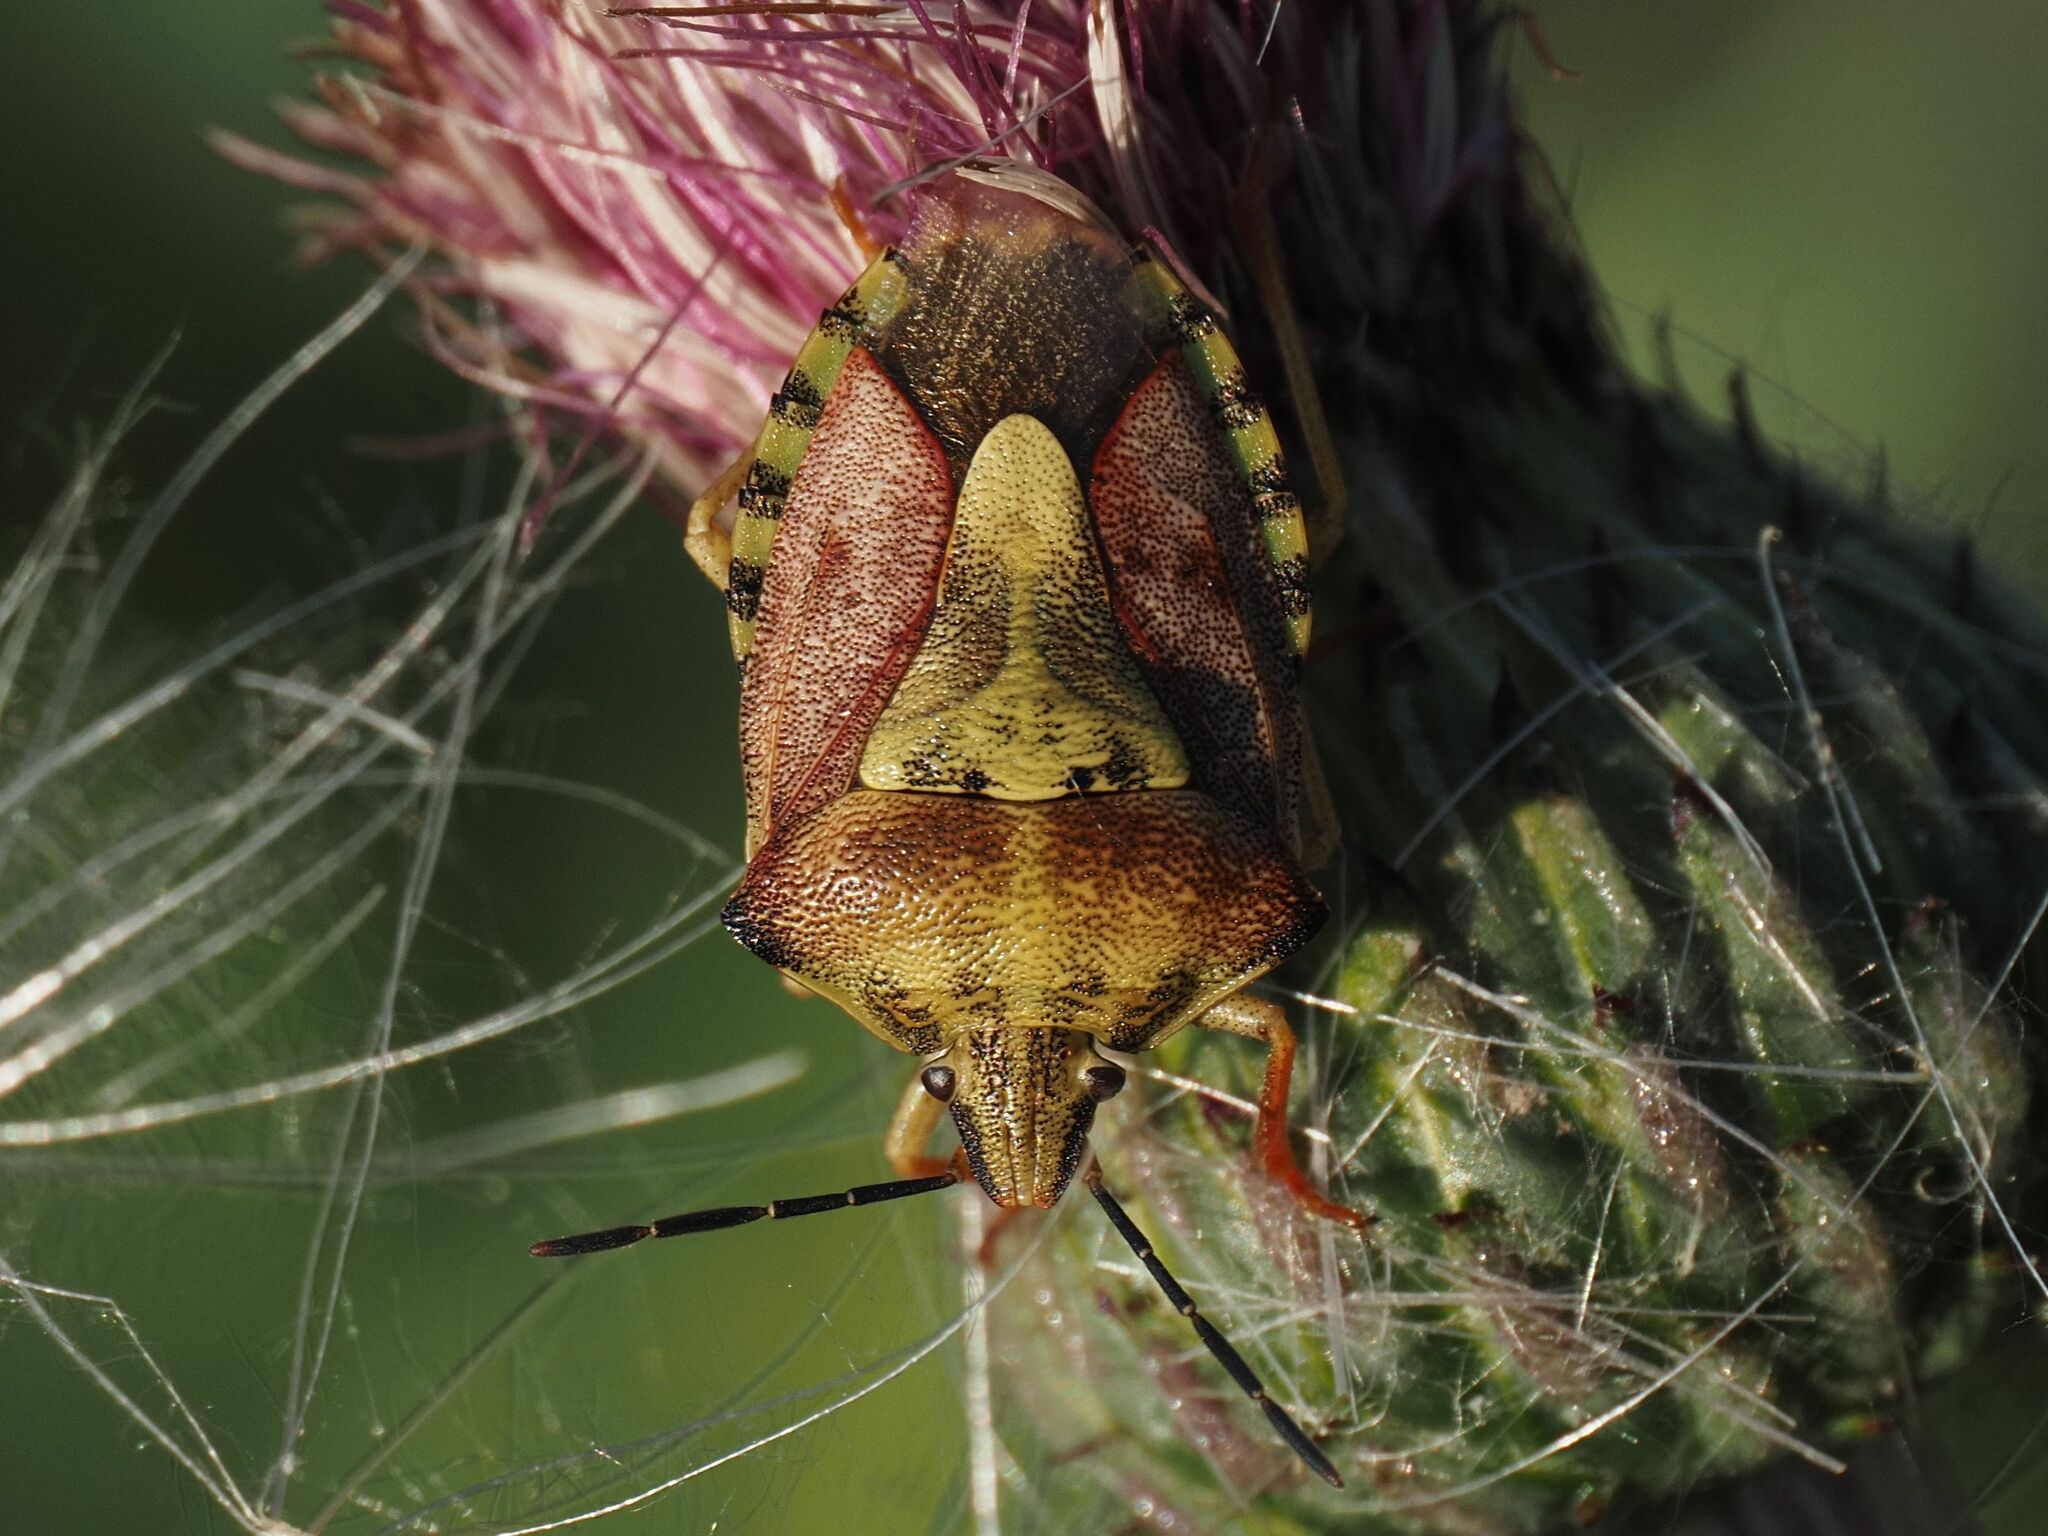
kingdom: Animalia
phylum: Arthropoda
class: Insecta
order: Hemiptera
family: Pentatomidae
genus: Carpocoris
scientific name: Carpocoris purpureipennis
